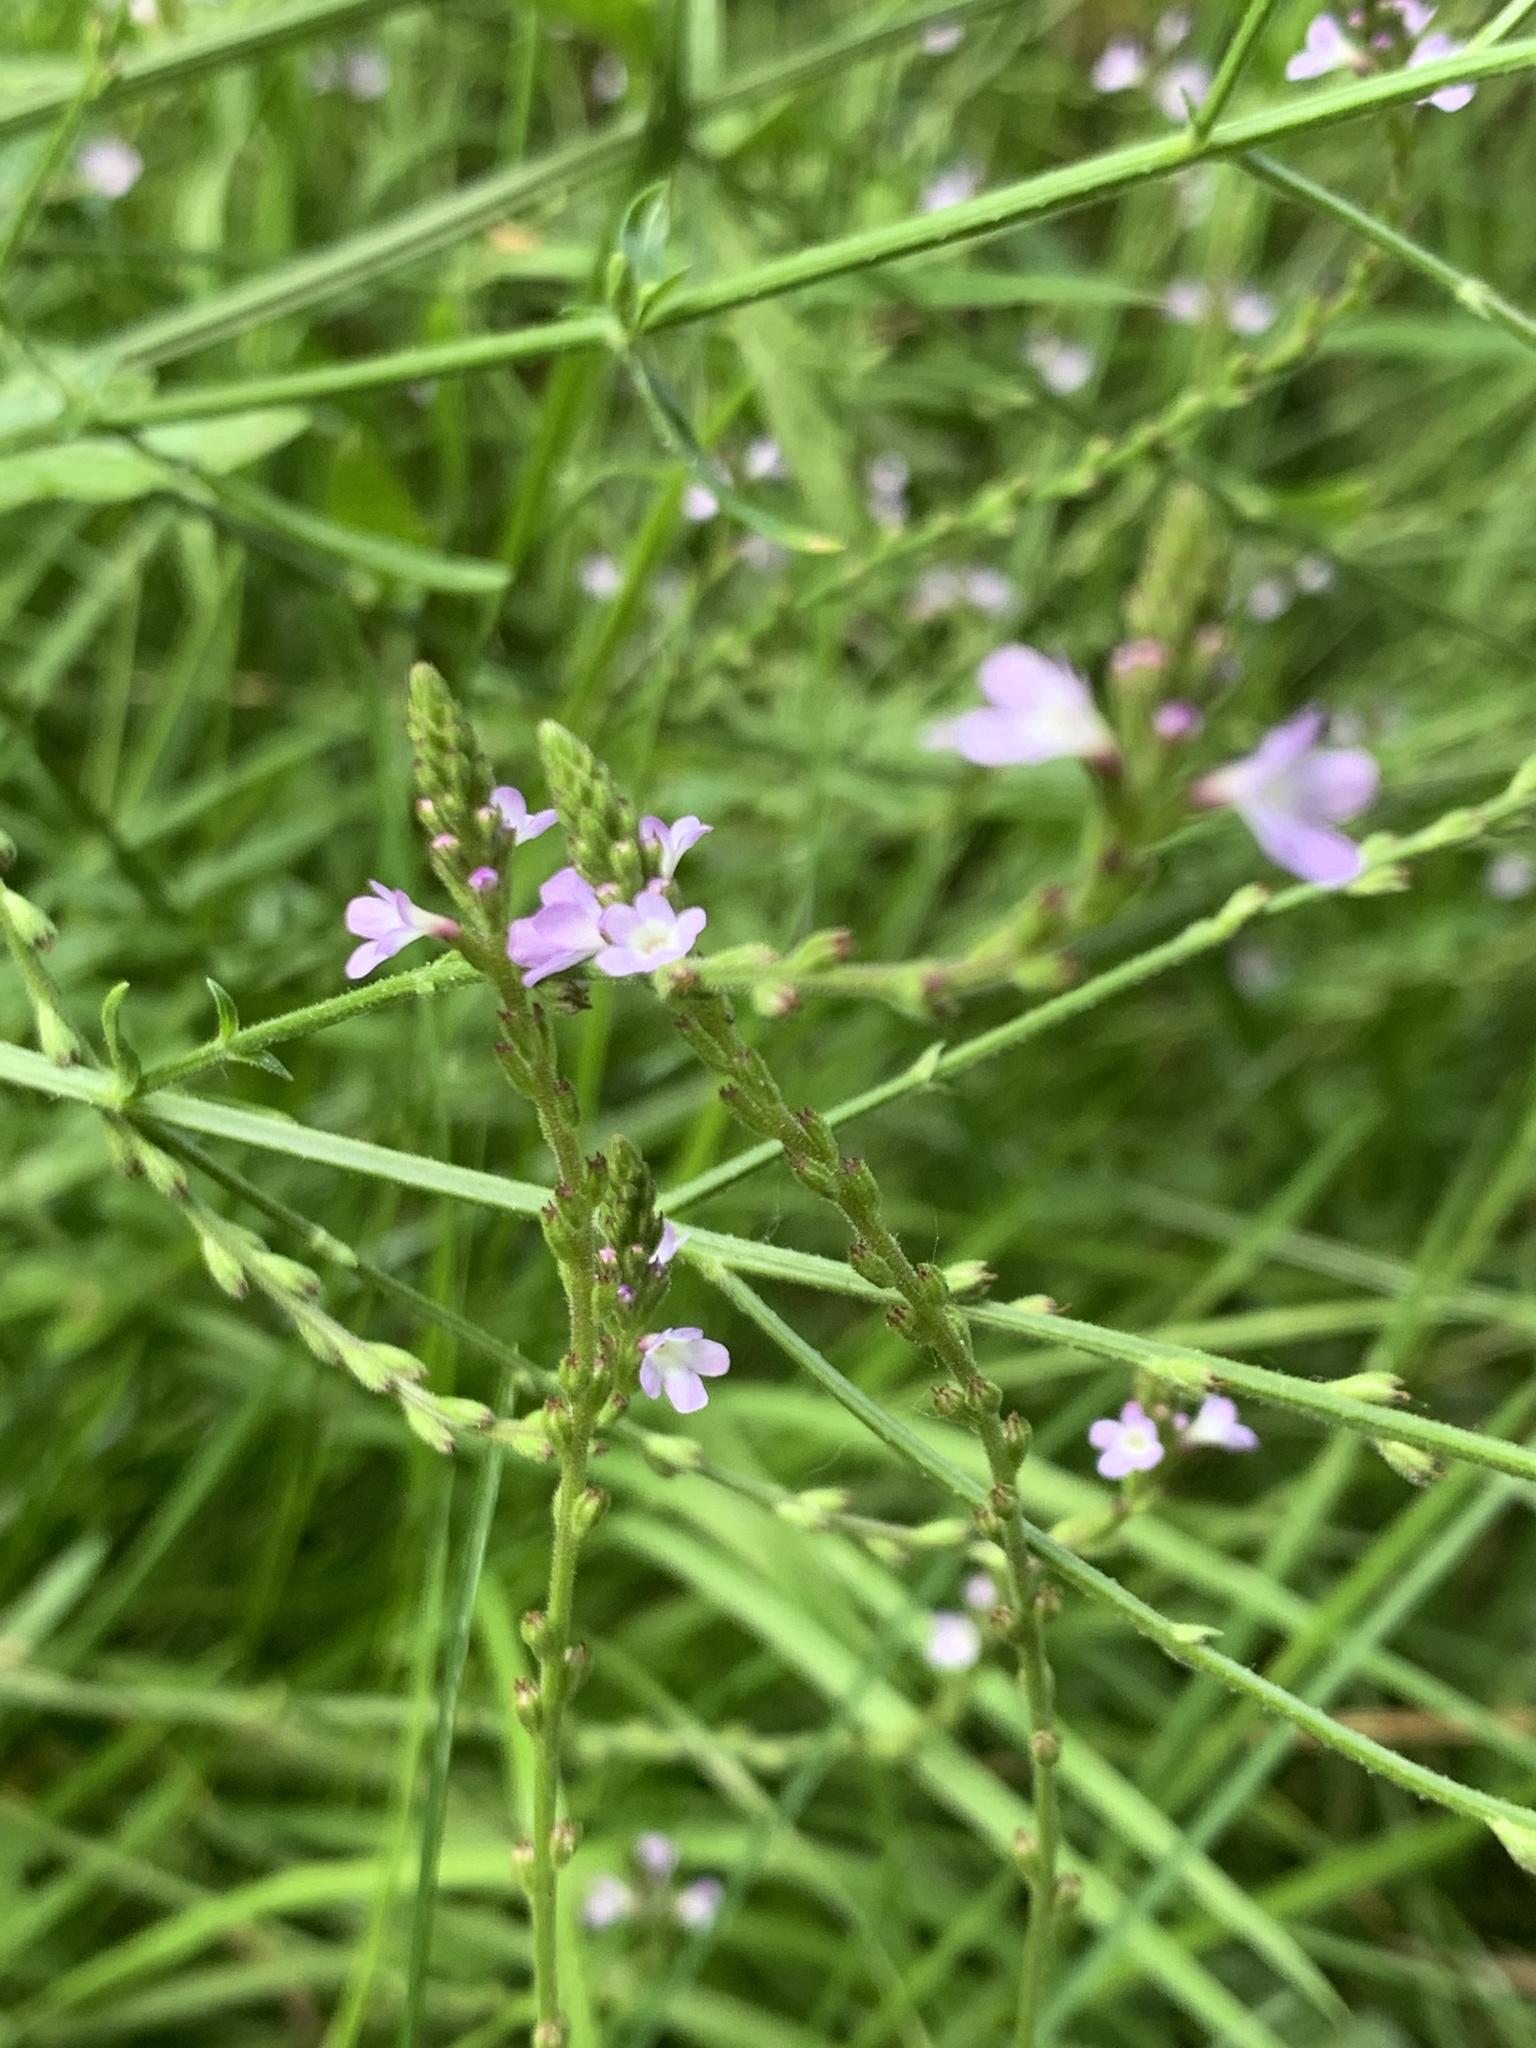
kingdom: Plantae
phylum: Tracheophyta
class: Magnoliopsida
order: Lamiales
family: Verbenaceae
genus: Verbena
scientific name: Verbena officinalis
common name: Vervain
